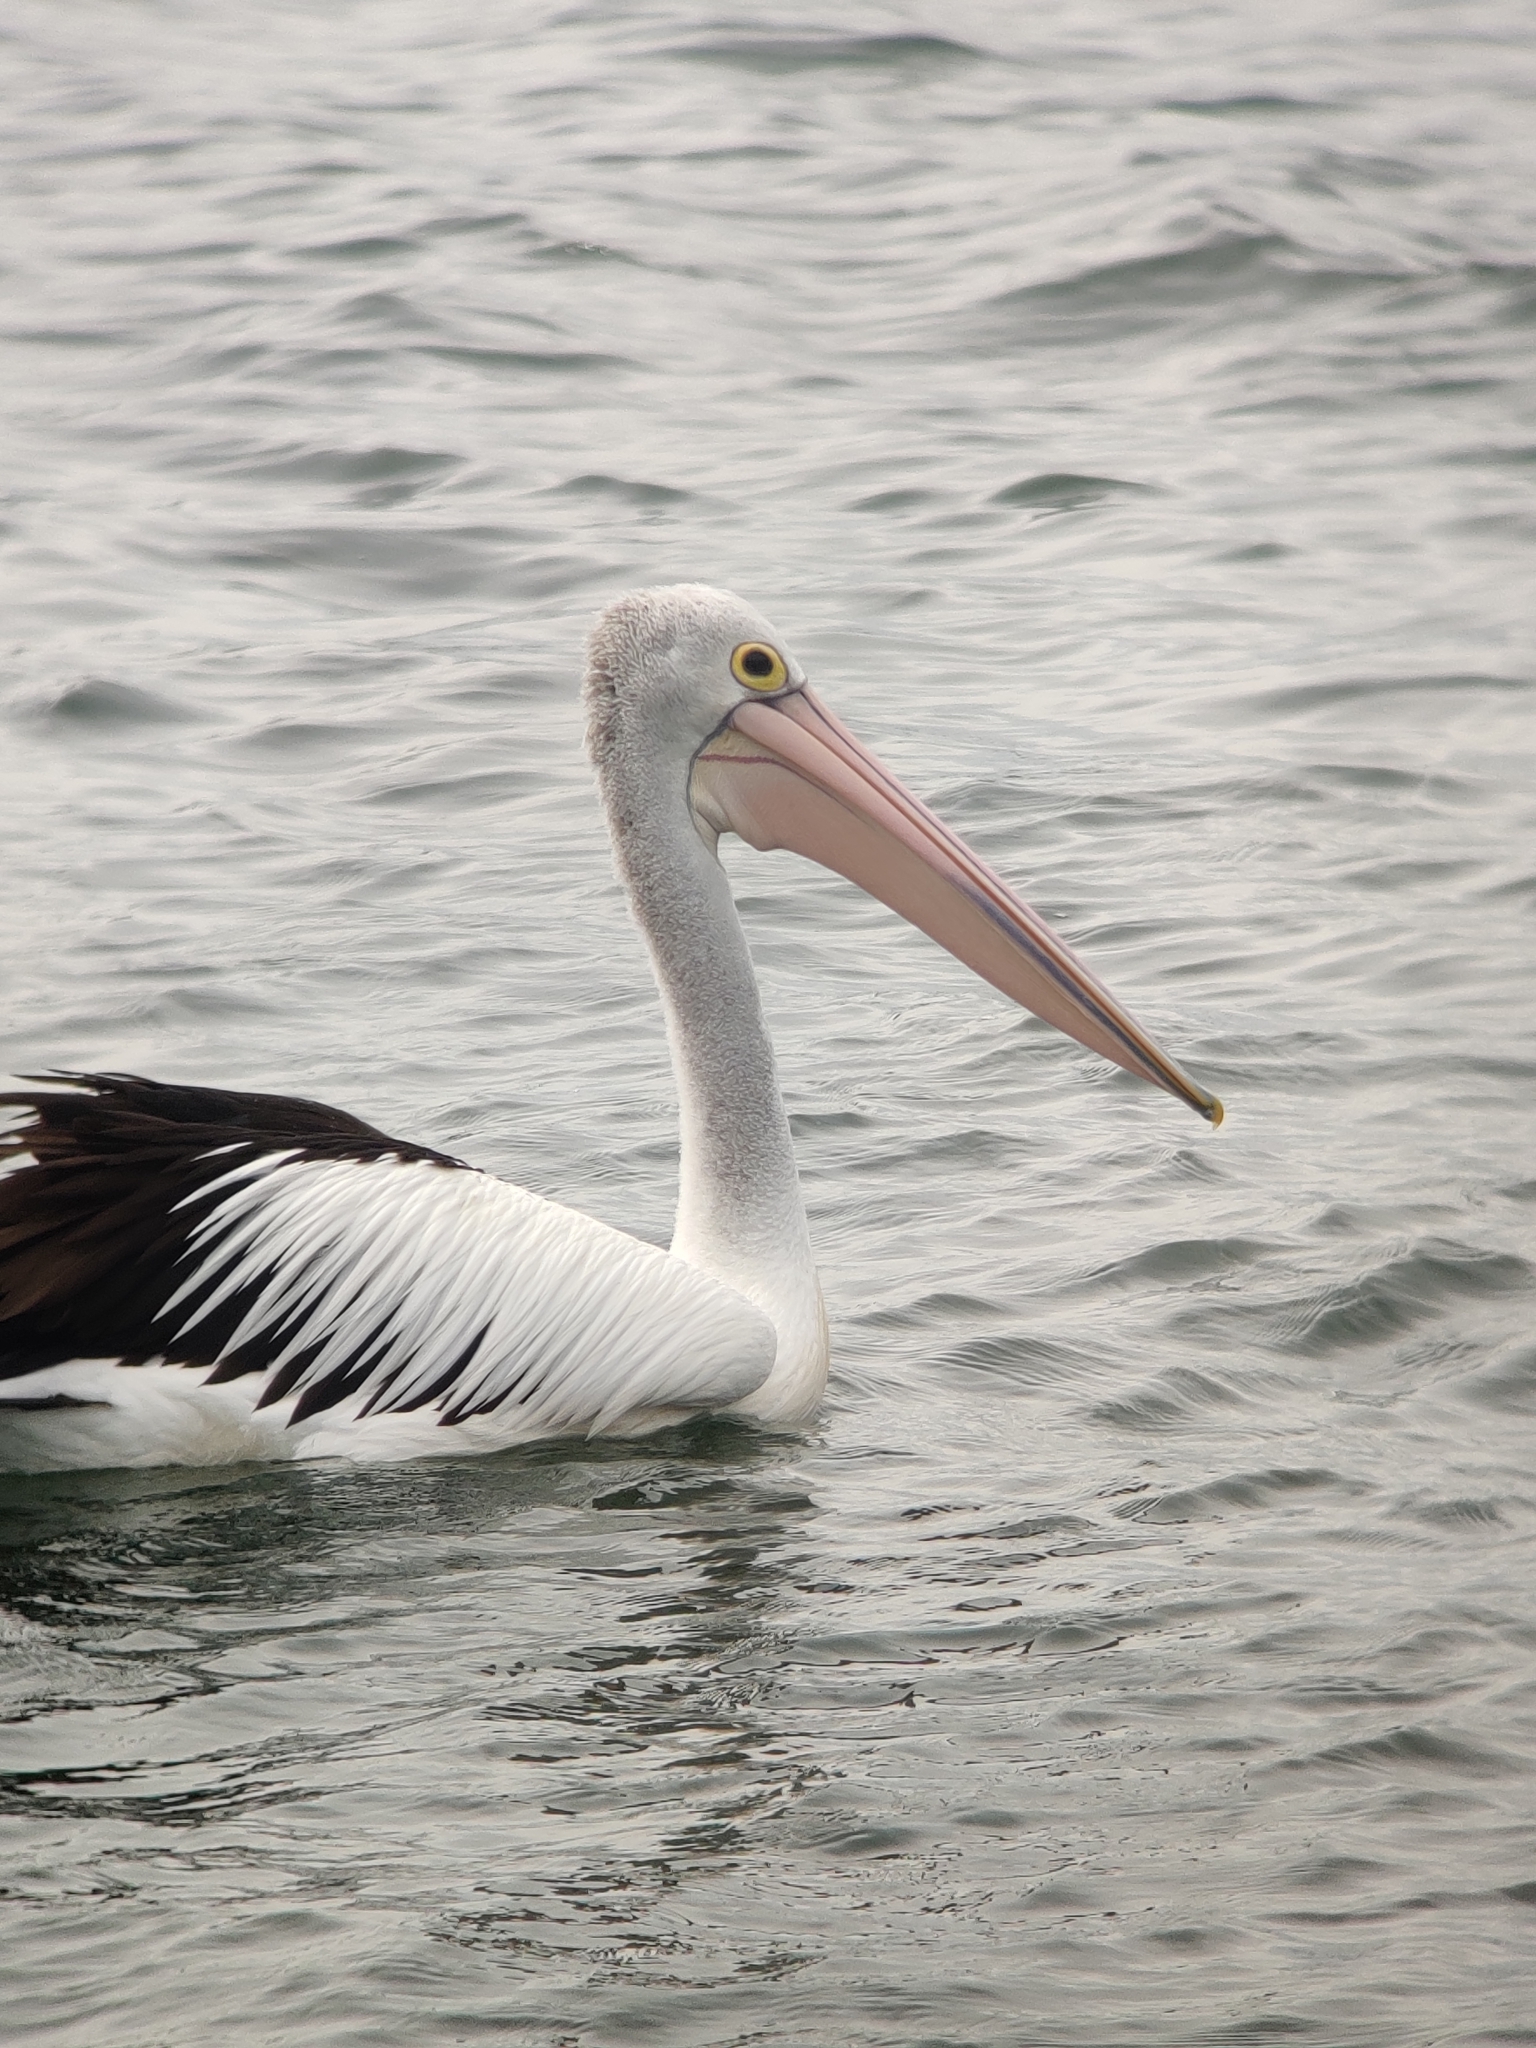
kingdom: Animalia
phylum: Chordata
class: Aves
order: Pelecaniformes
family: Pelecanidae
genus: Pelecanus
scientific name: Pelecanus conspicillatus
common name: Australian pelican
